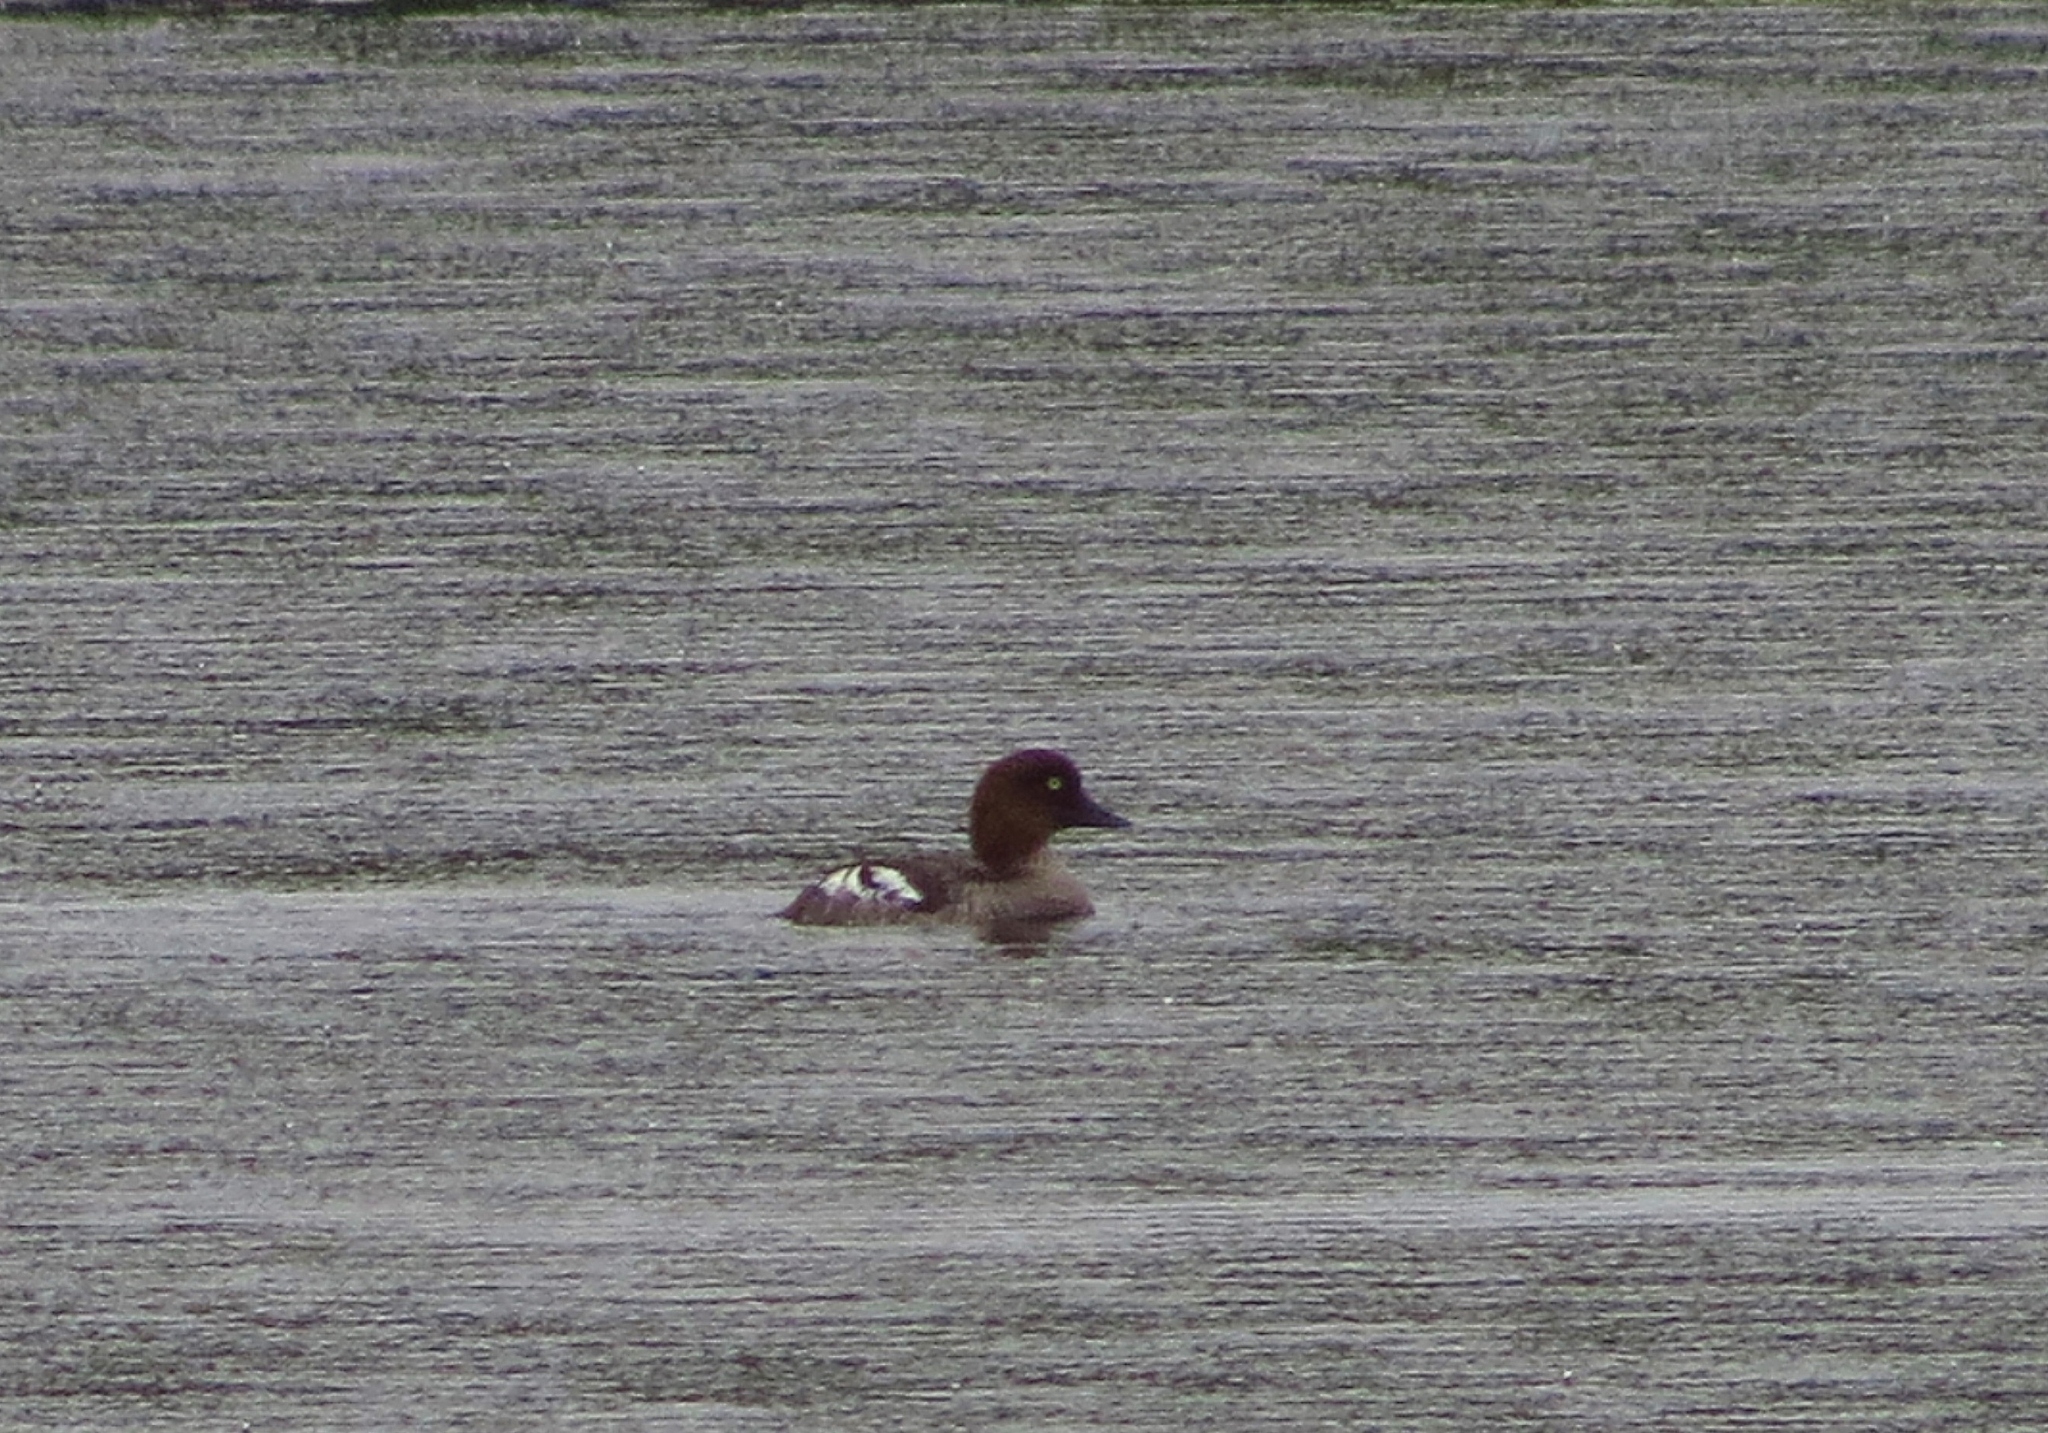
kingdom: Animalia
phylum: Chordata
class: Aves
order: Anseriformes
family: Anatidae
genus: Bucephala
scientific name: Bucephala clangula
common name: Common goldeneye
